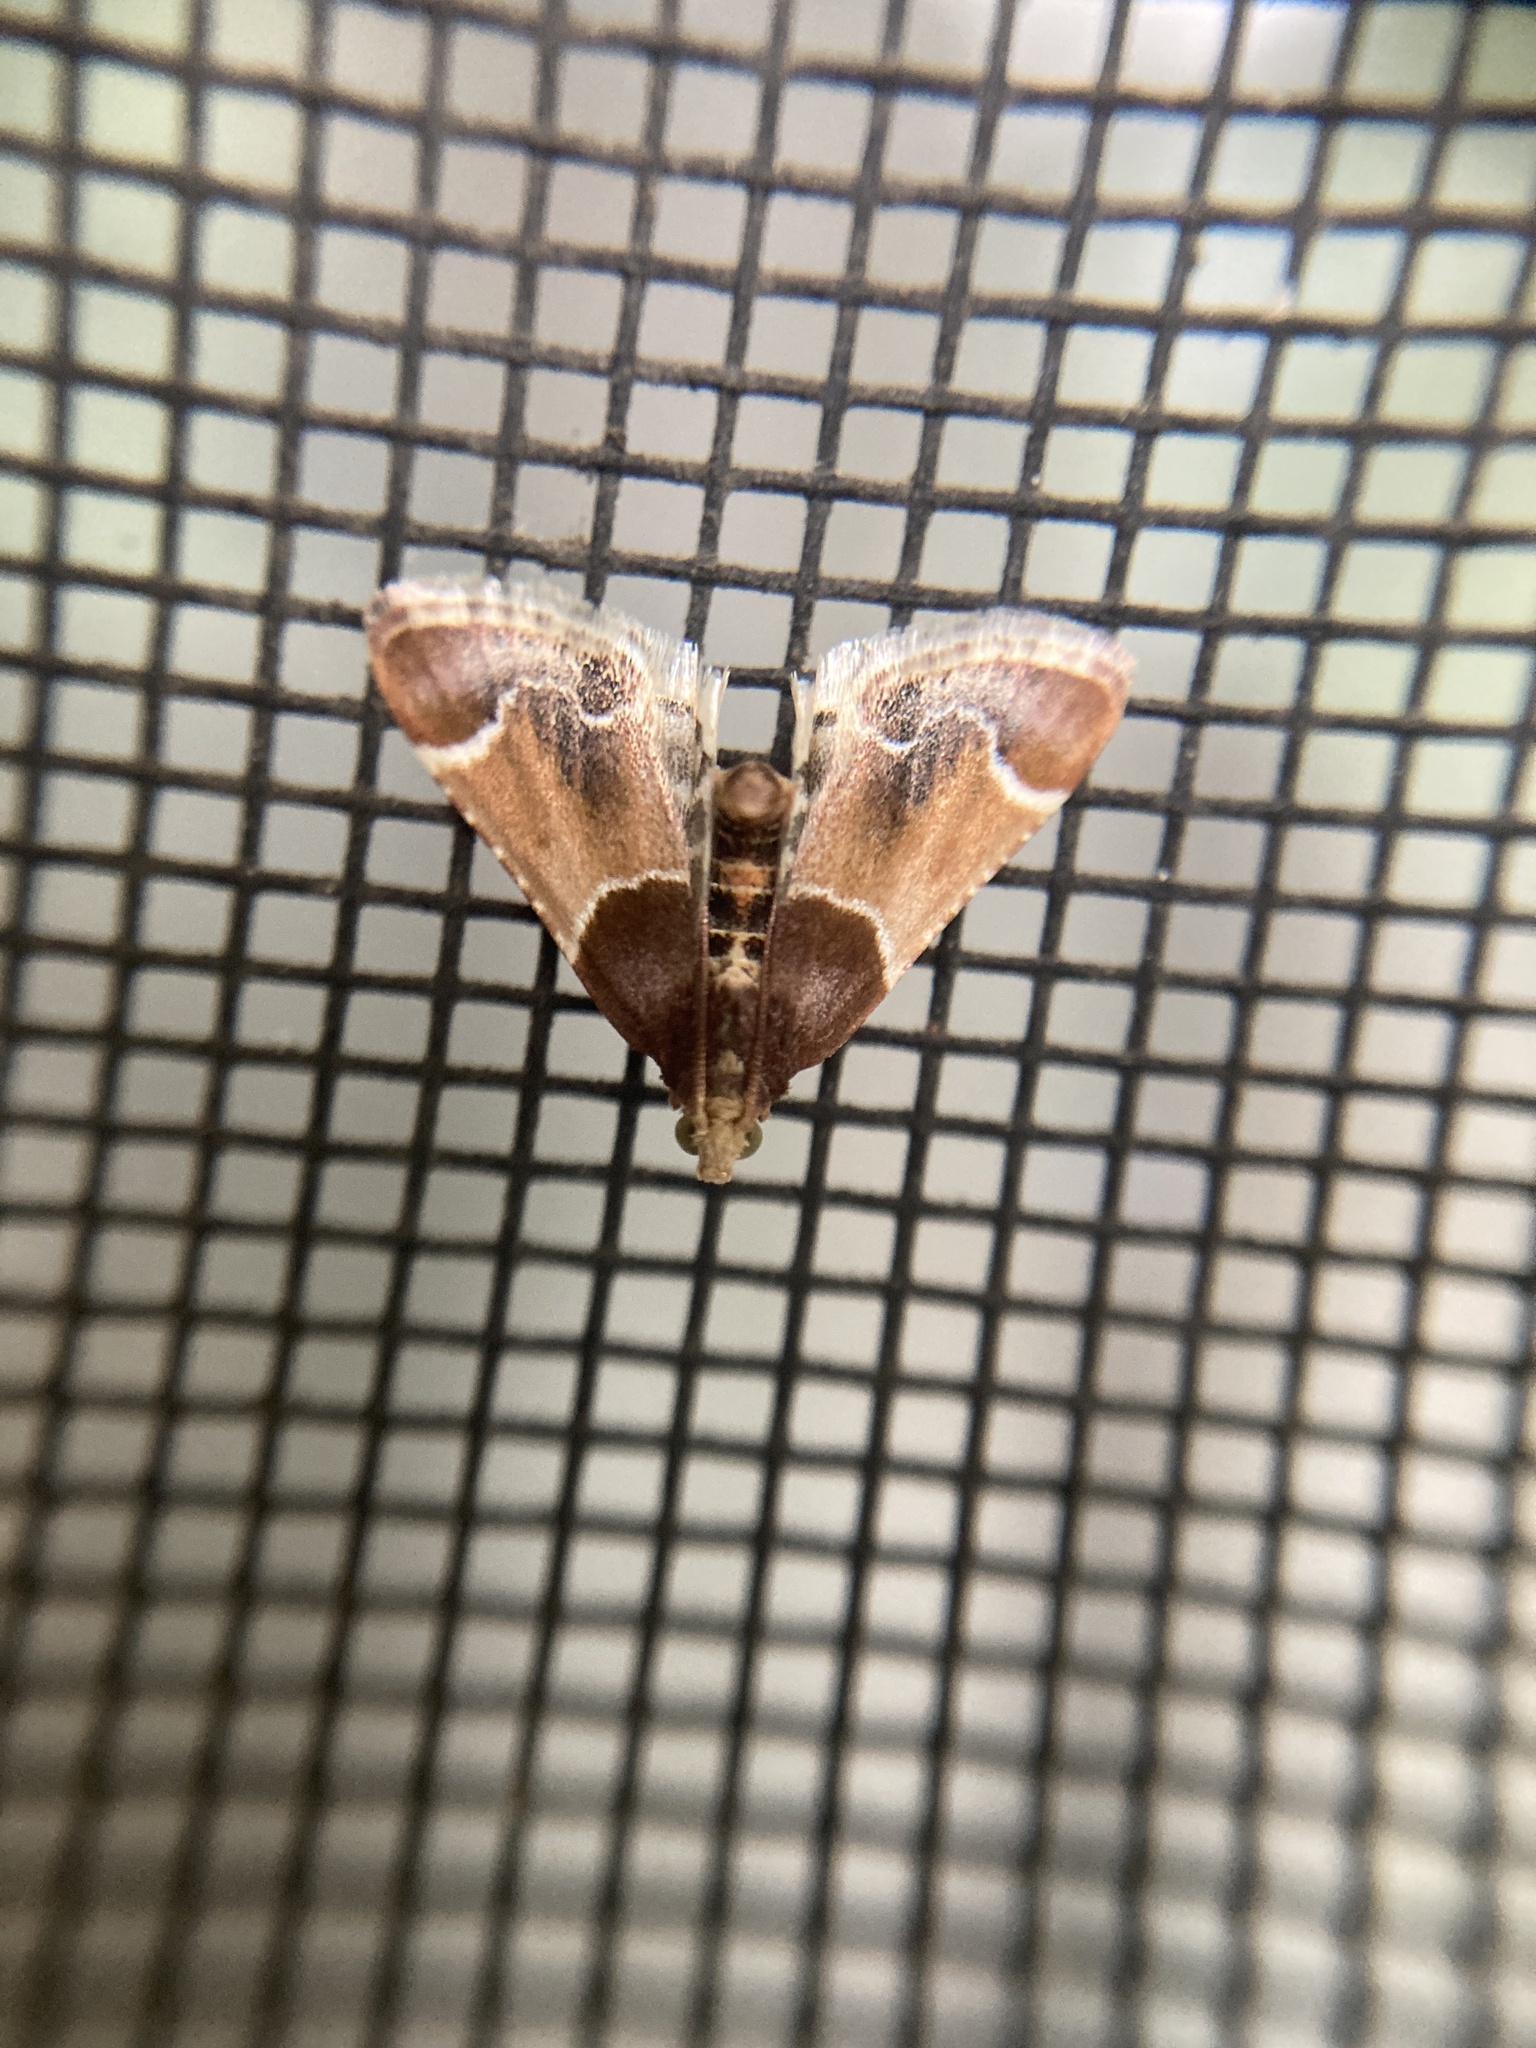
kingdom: Animalia
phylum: Arthropoda
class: Insecta
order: Lepidoptera
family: Pyralidae
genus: Pyralis
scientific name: Pyralis farinalis
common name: Meal moth
